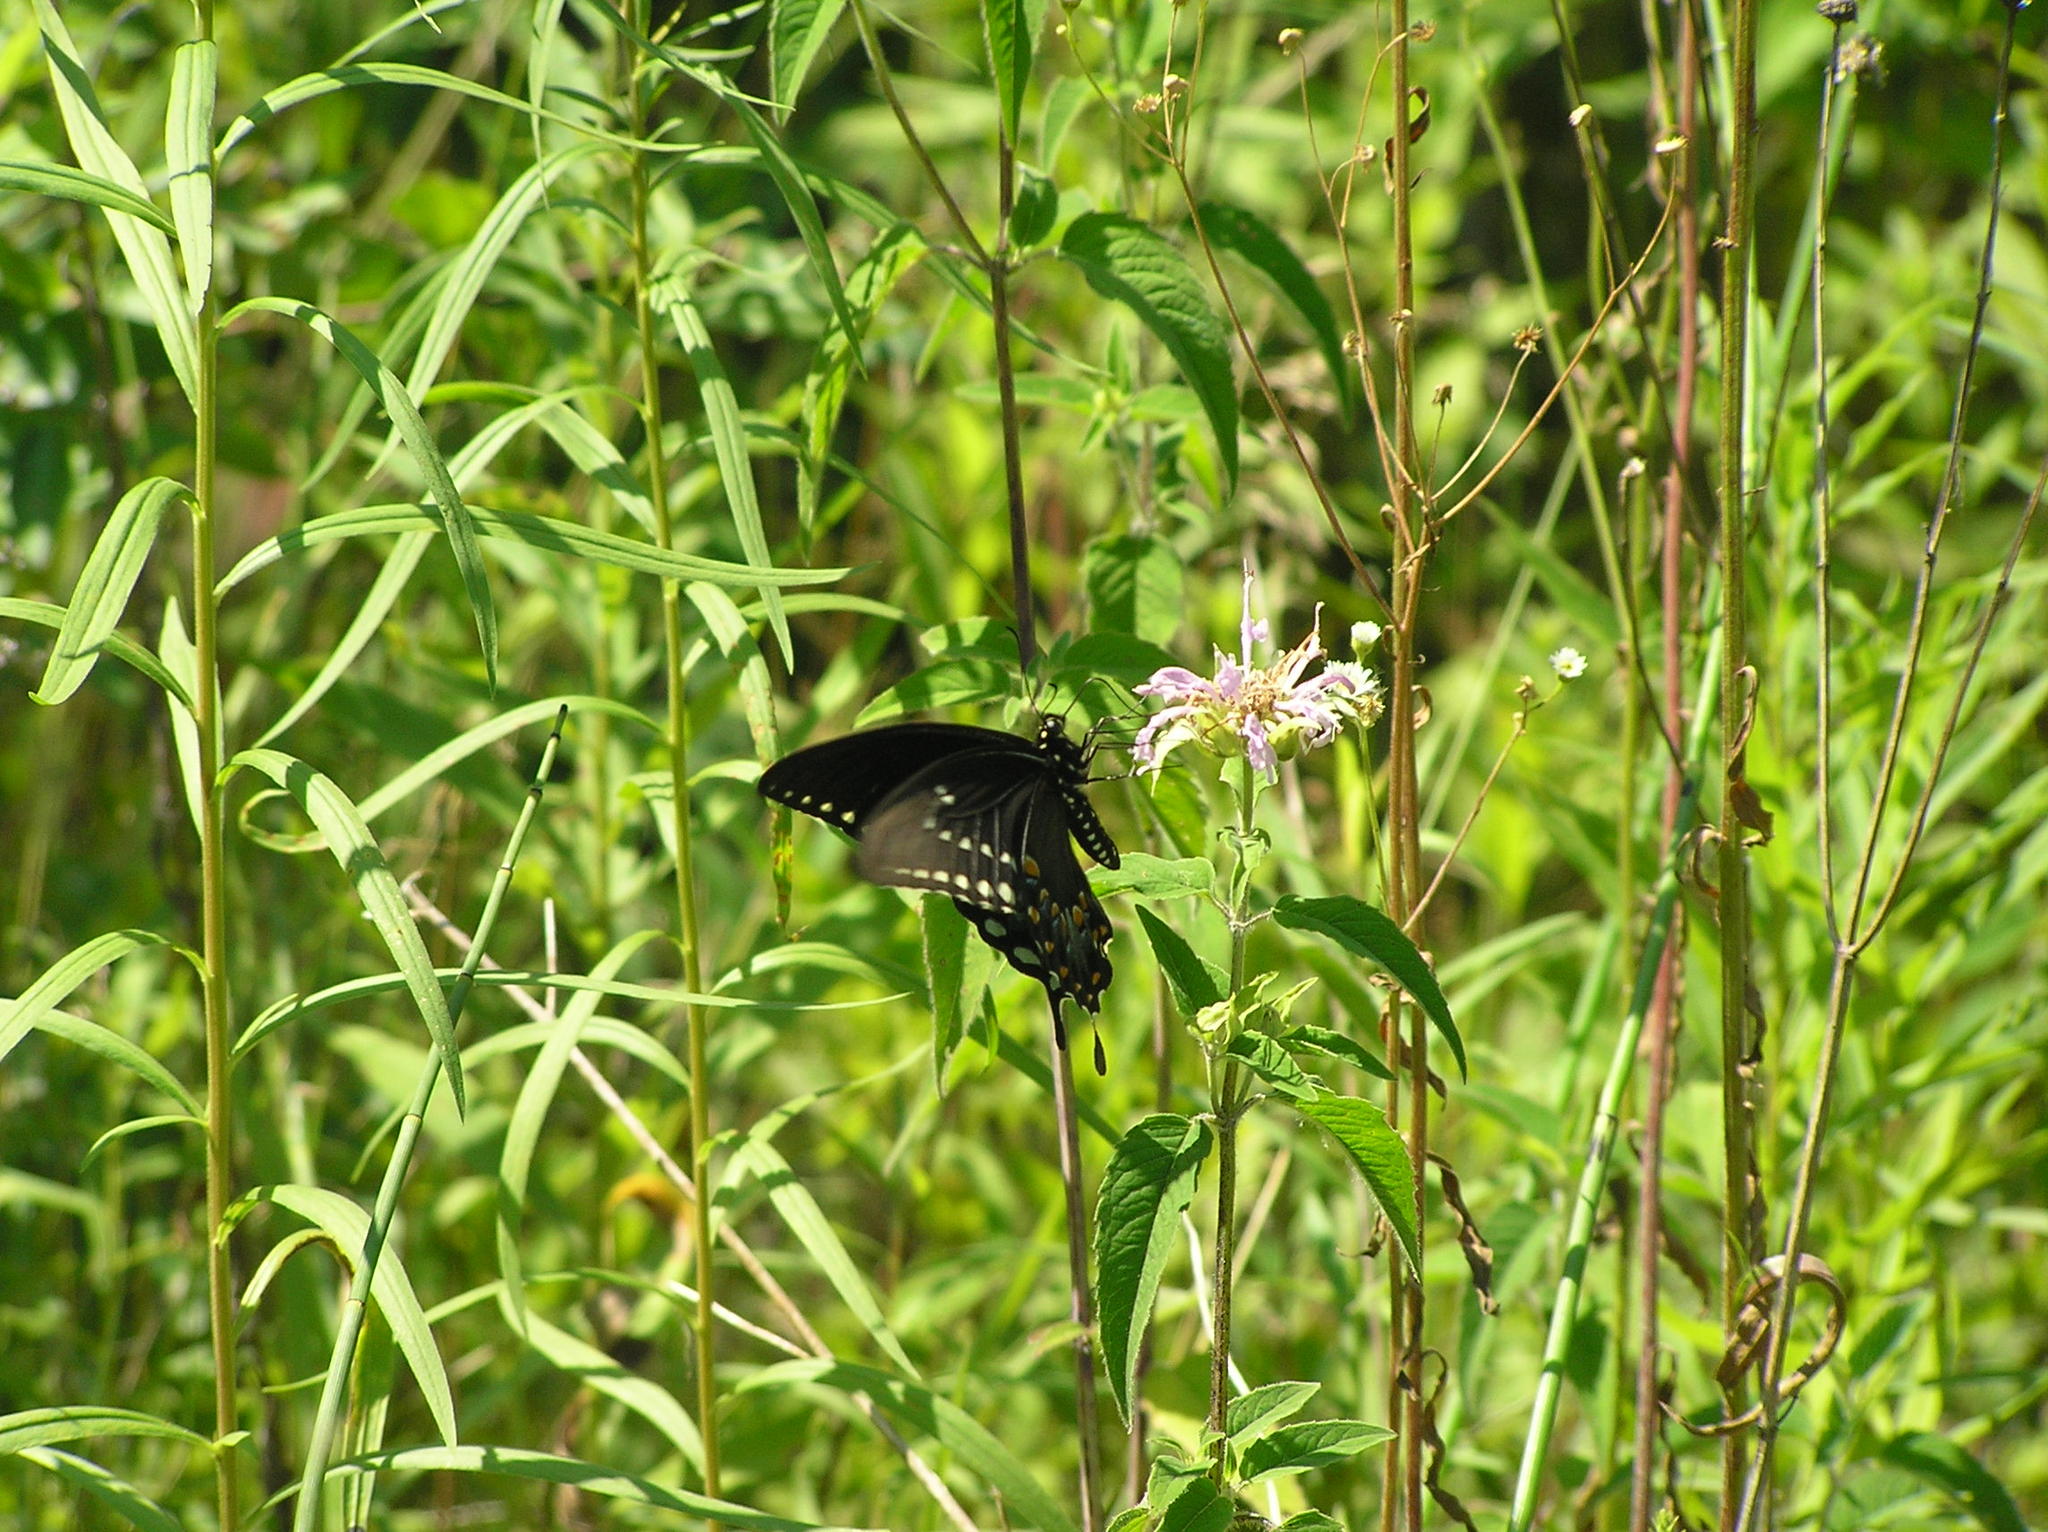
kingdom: Animalia
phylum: Arthropoda
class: Insecta
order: Lepidoptera
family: Papilionidae
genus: Papilio
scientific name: Papilio troilus
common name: Spicebush swallowtail
